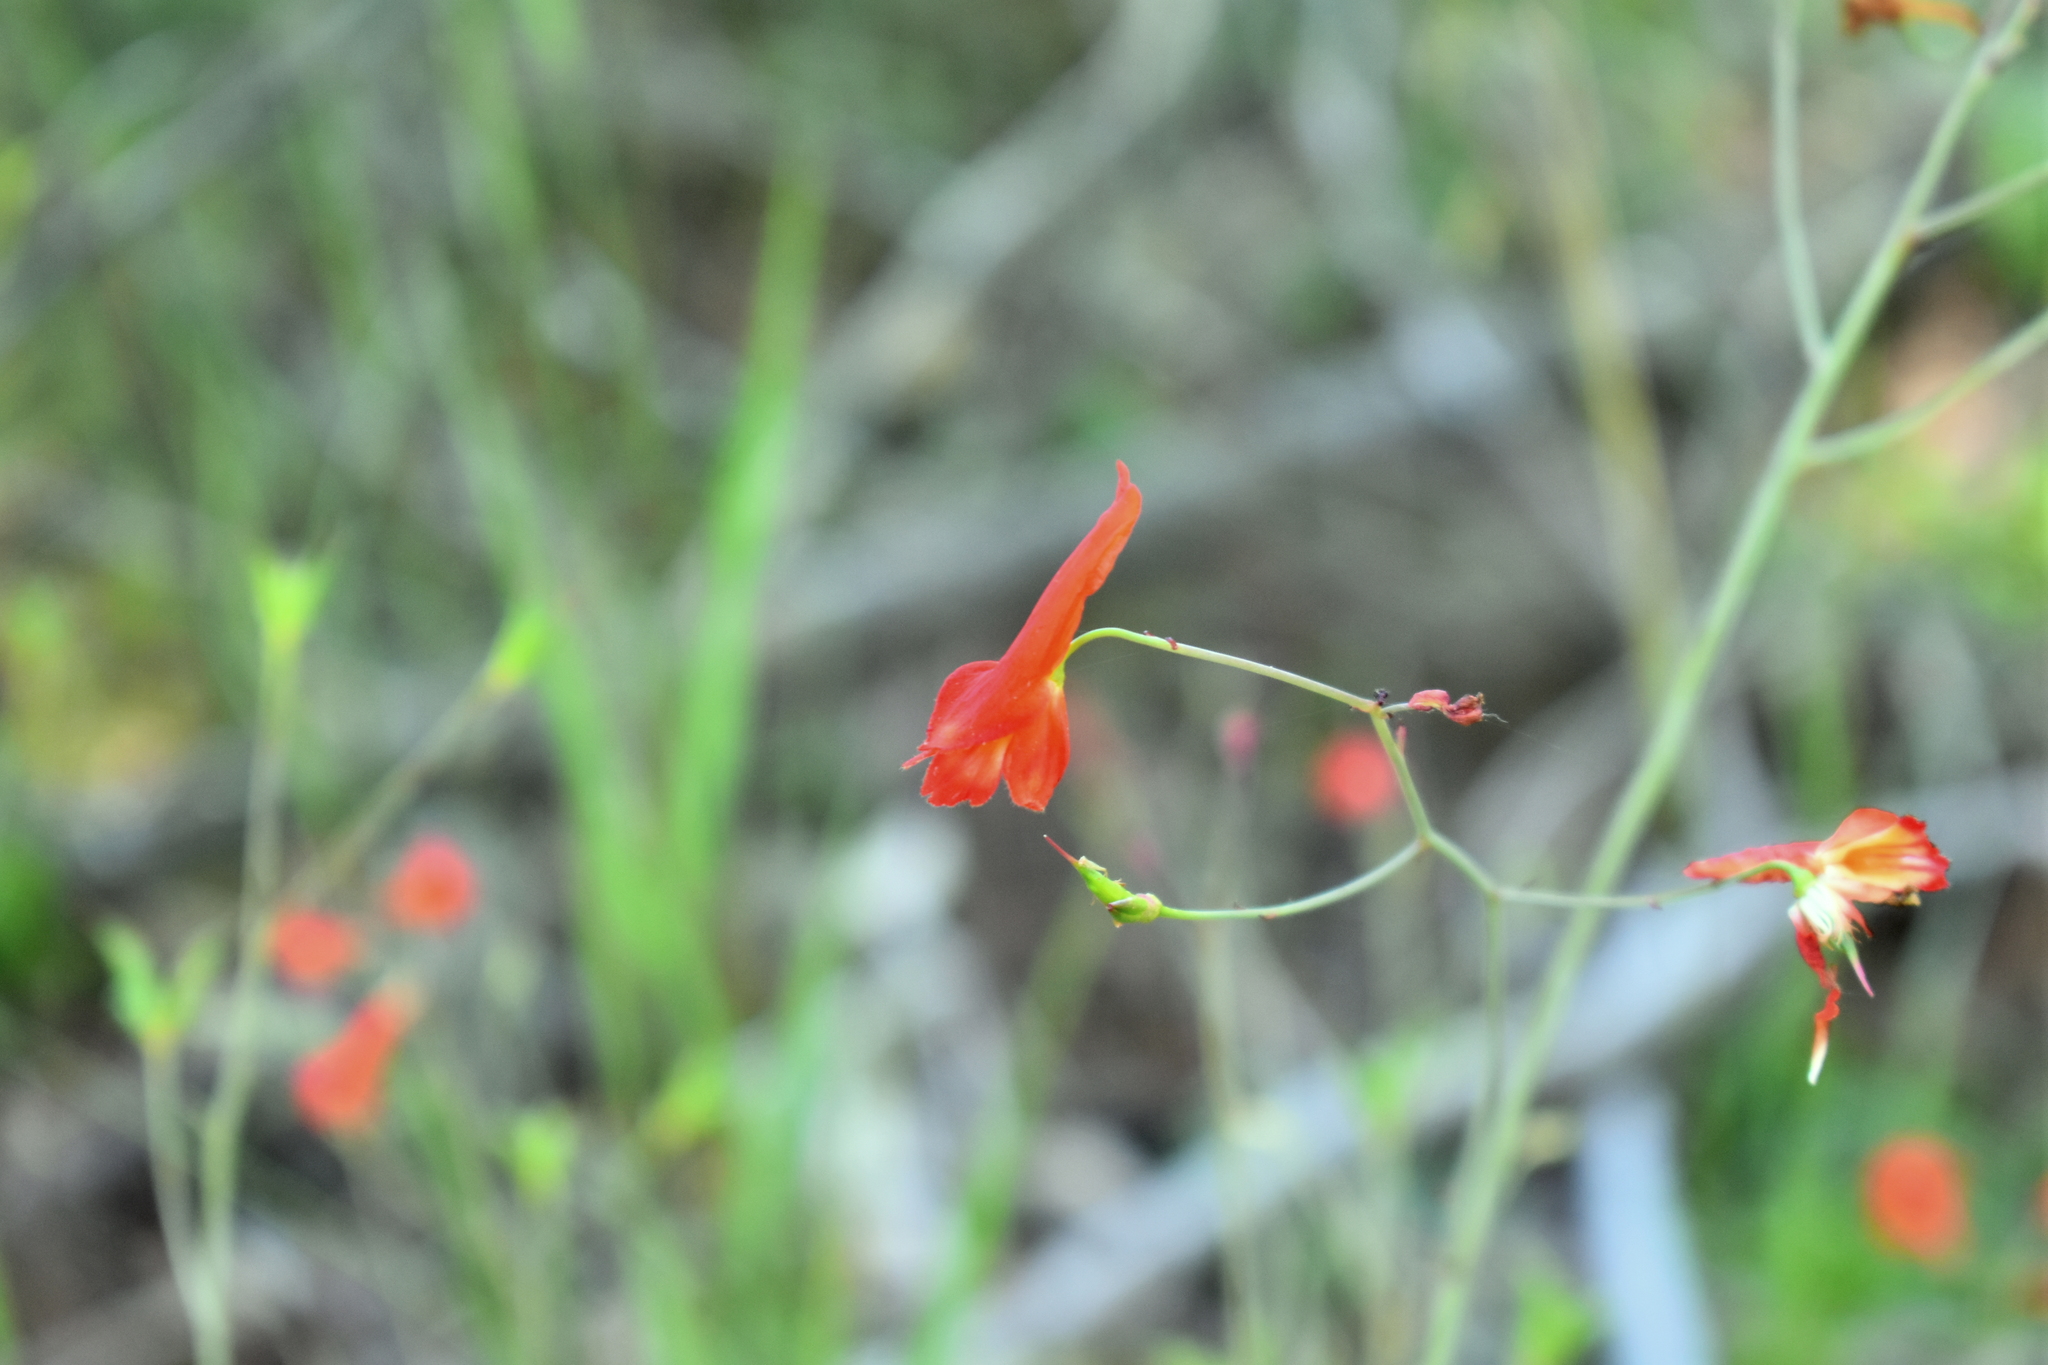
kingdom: Plantae
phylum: Tracheophyta
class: Magnoliopsida
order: Ranunculales
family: Ranunculaceae
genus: Delphinium
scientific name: Delphinium nudicaule
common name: Red larkspur
